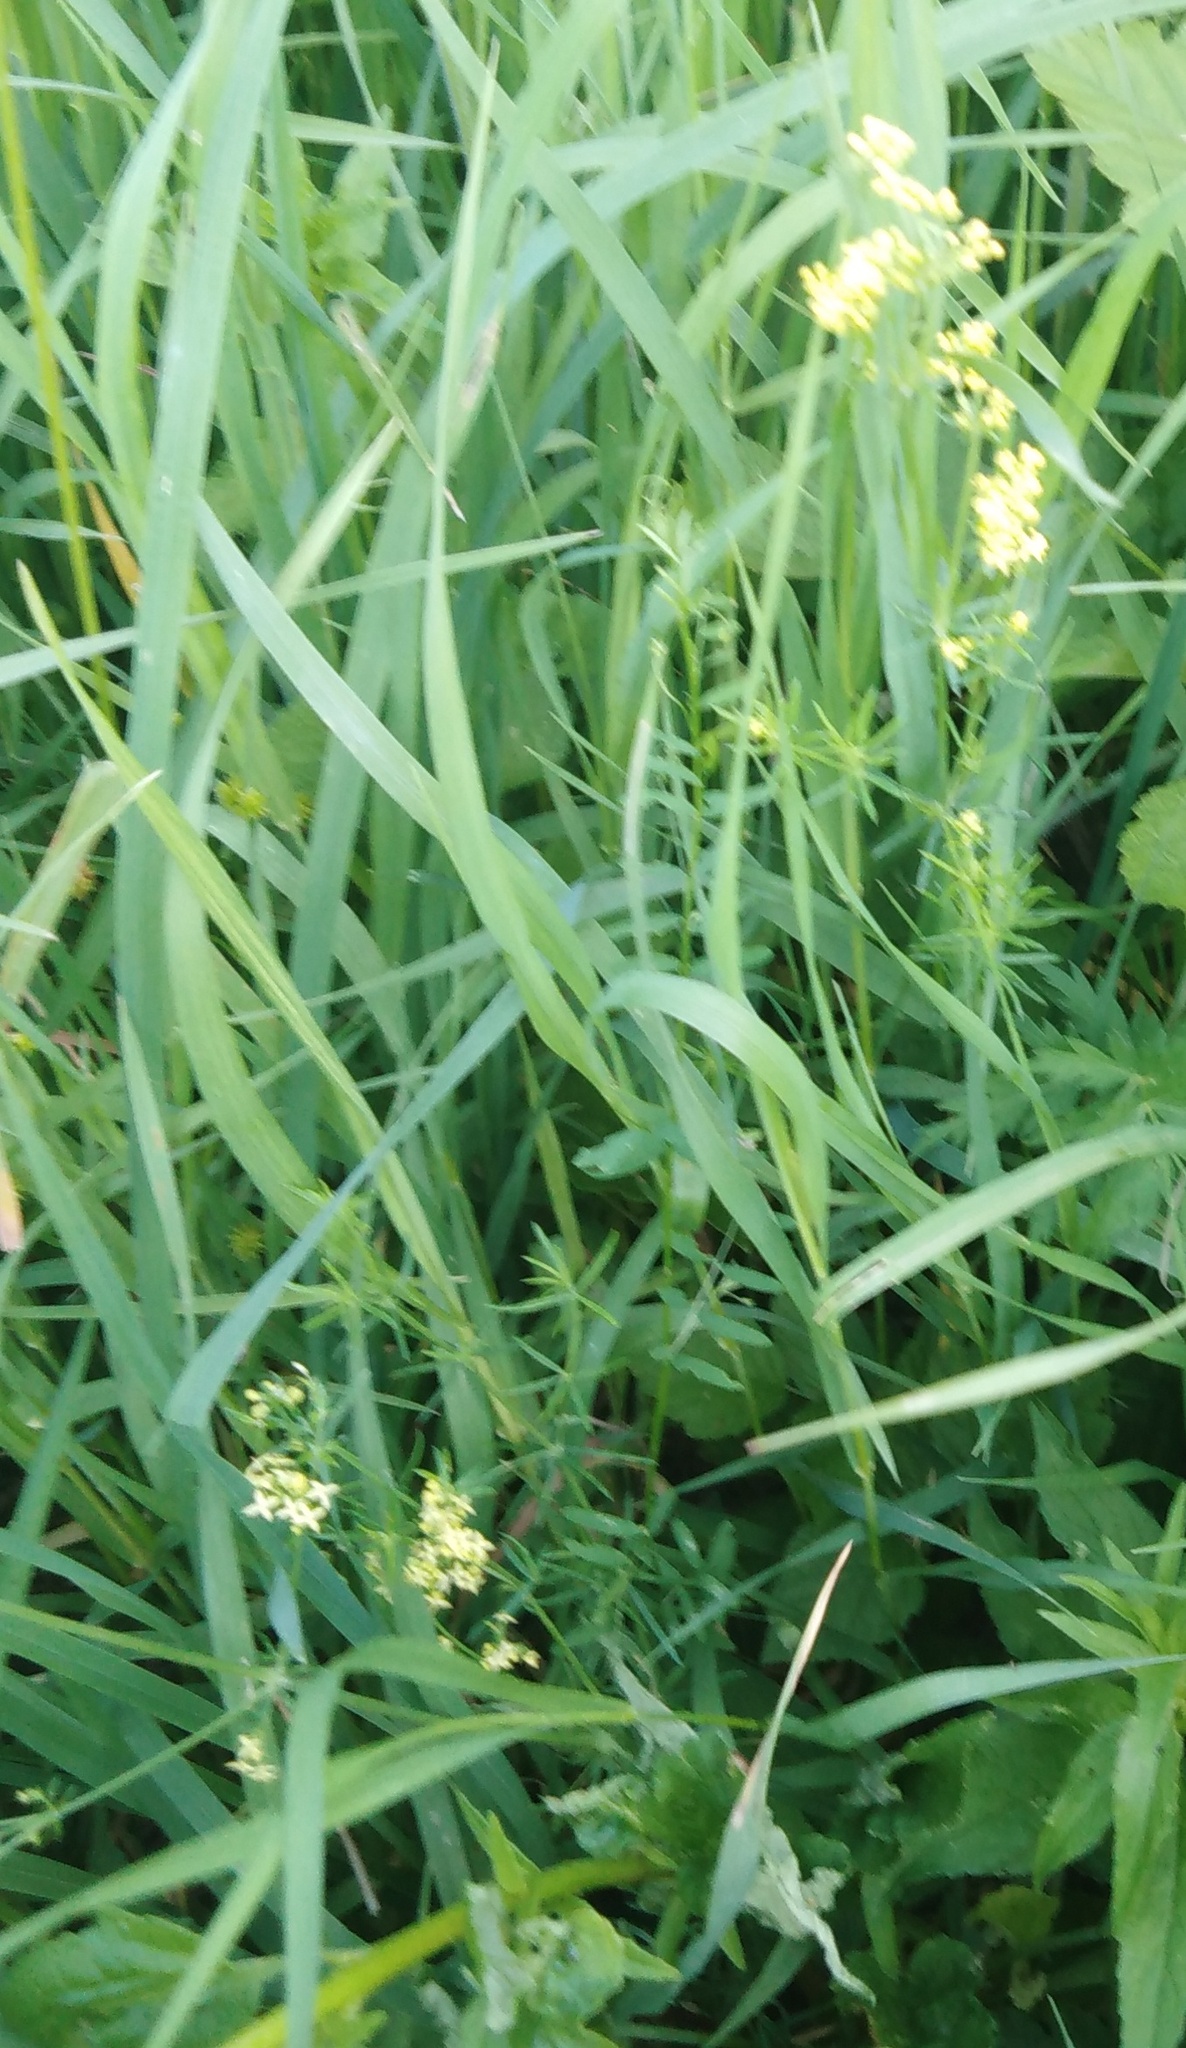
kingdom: Plantae
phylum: Tracheophyta
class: Magnoliopsida
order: Gentianales
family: Rubiaceae
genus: Galium
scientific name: Galium verum
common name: Lady's bedstraw
